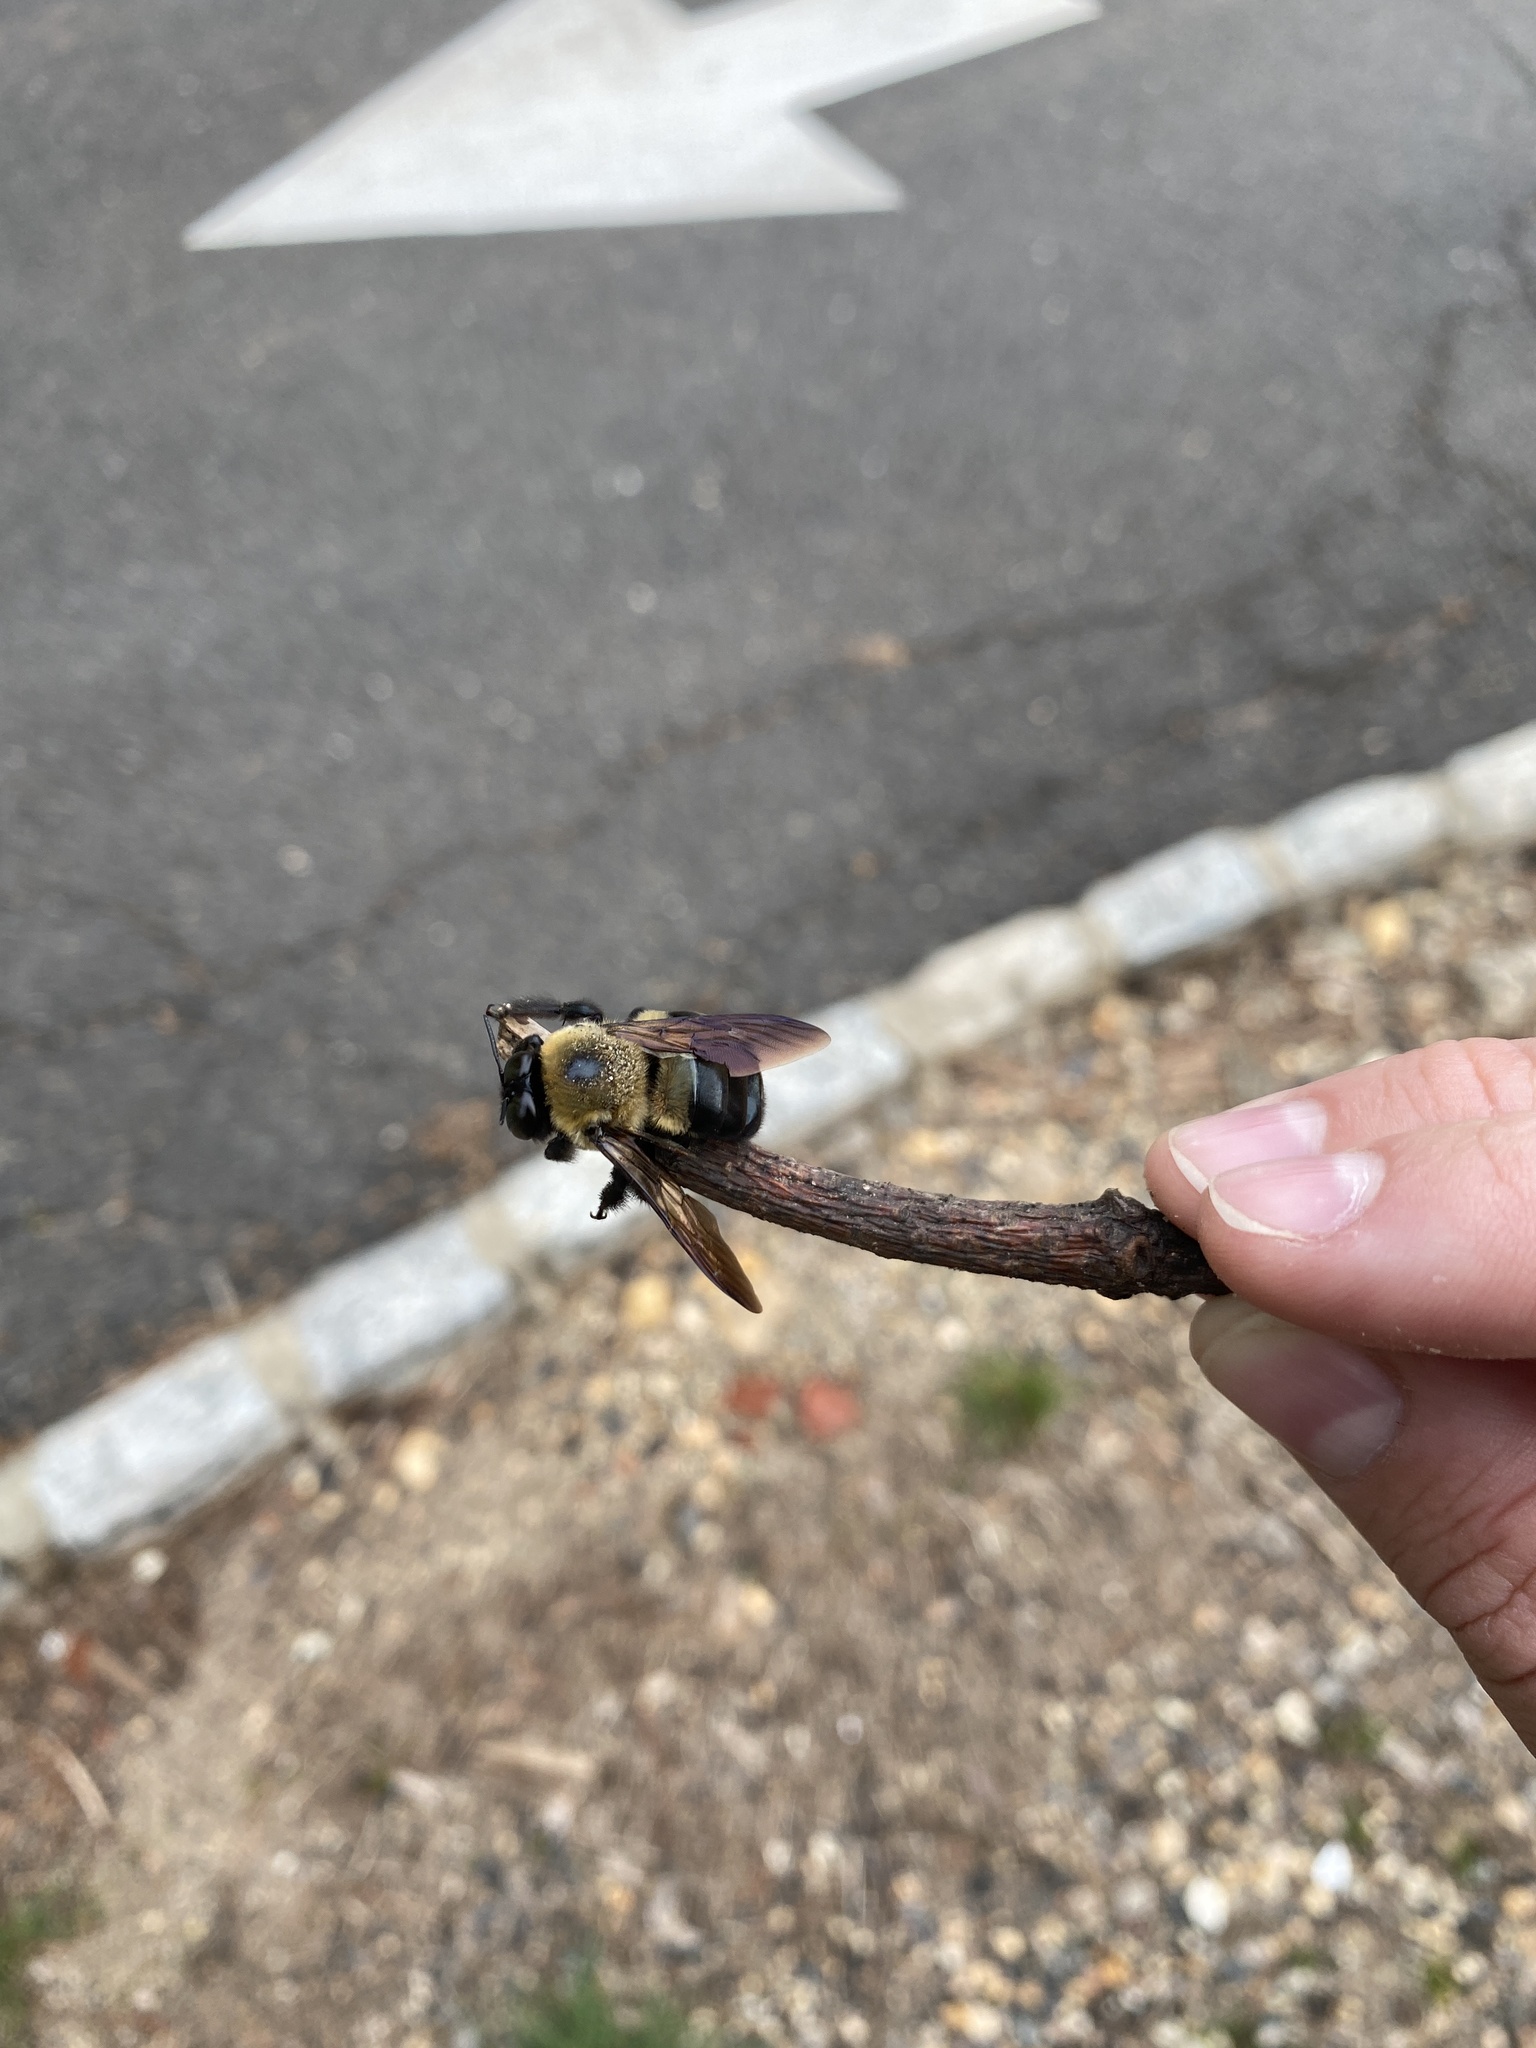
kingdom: Animalia
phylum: Arthropoda
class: Insecta
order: Hymenoptera
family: Apidae
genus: Xylocopa
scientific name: Xylocopa virginica
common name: Carpenter bee
